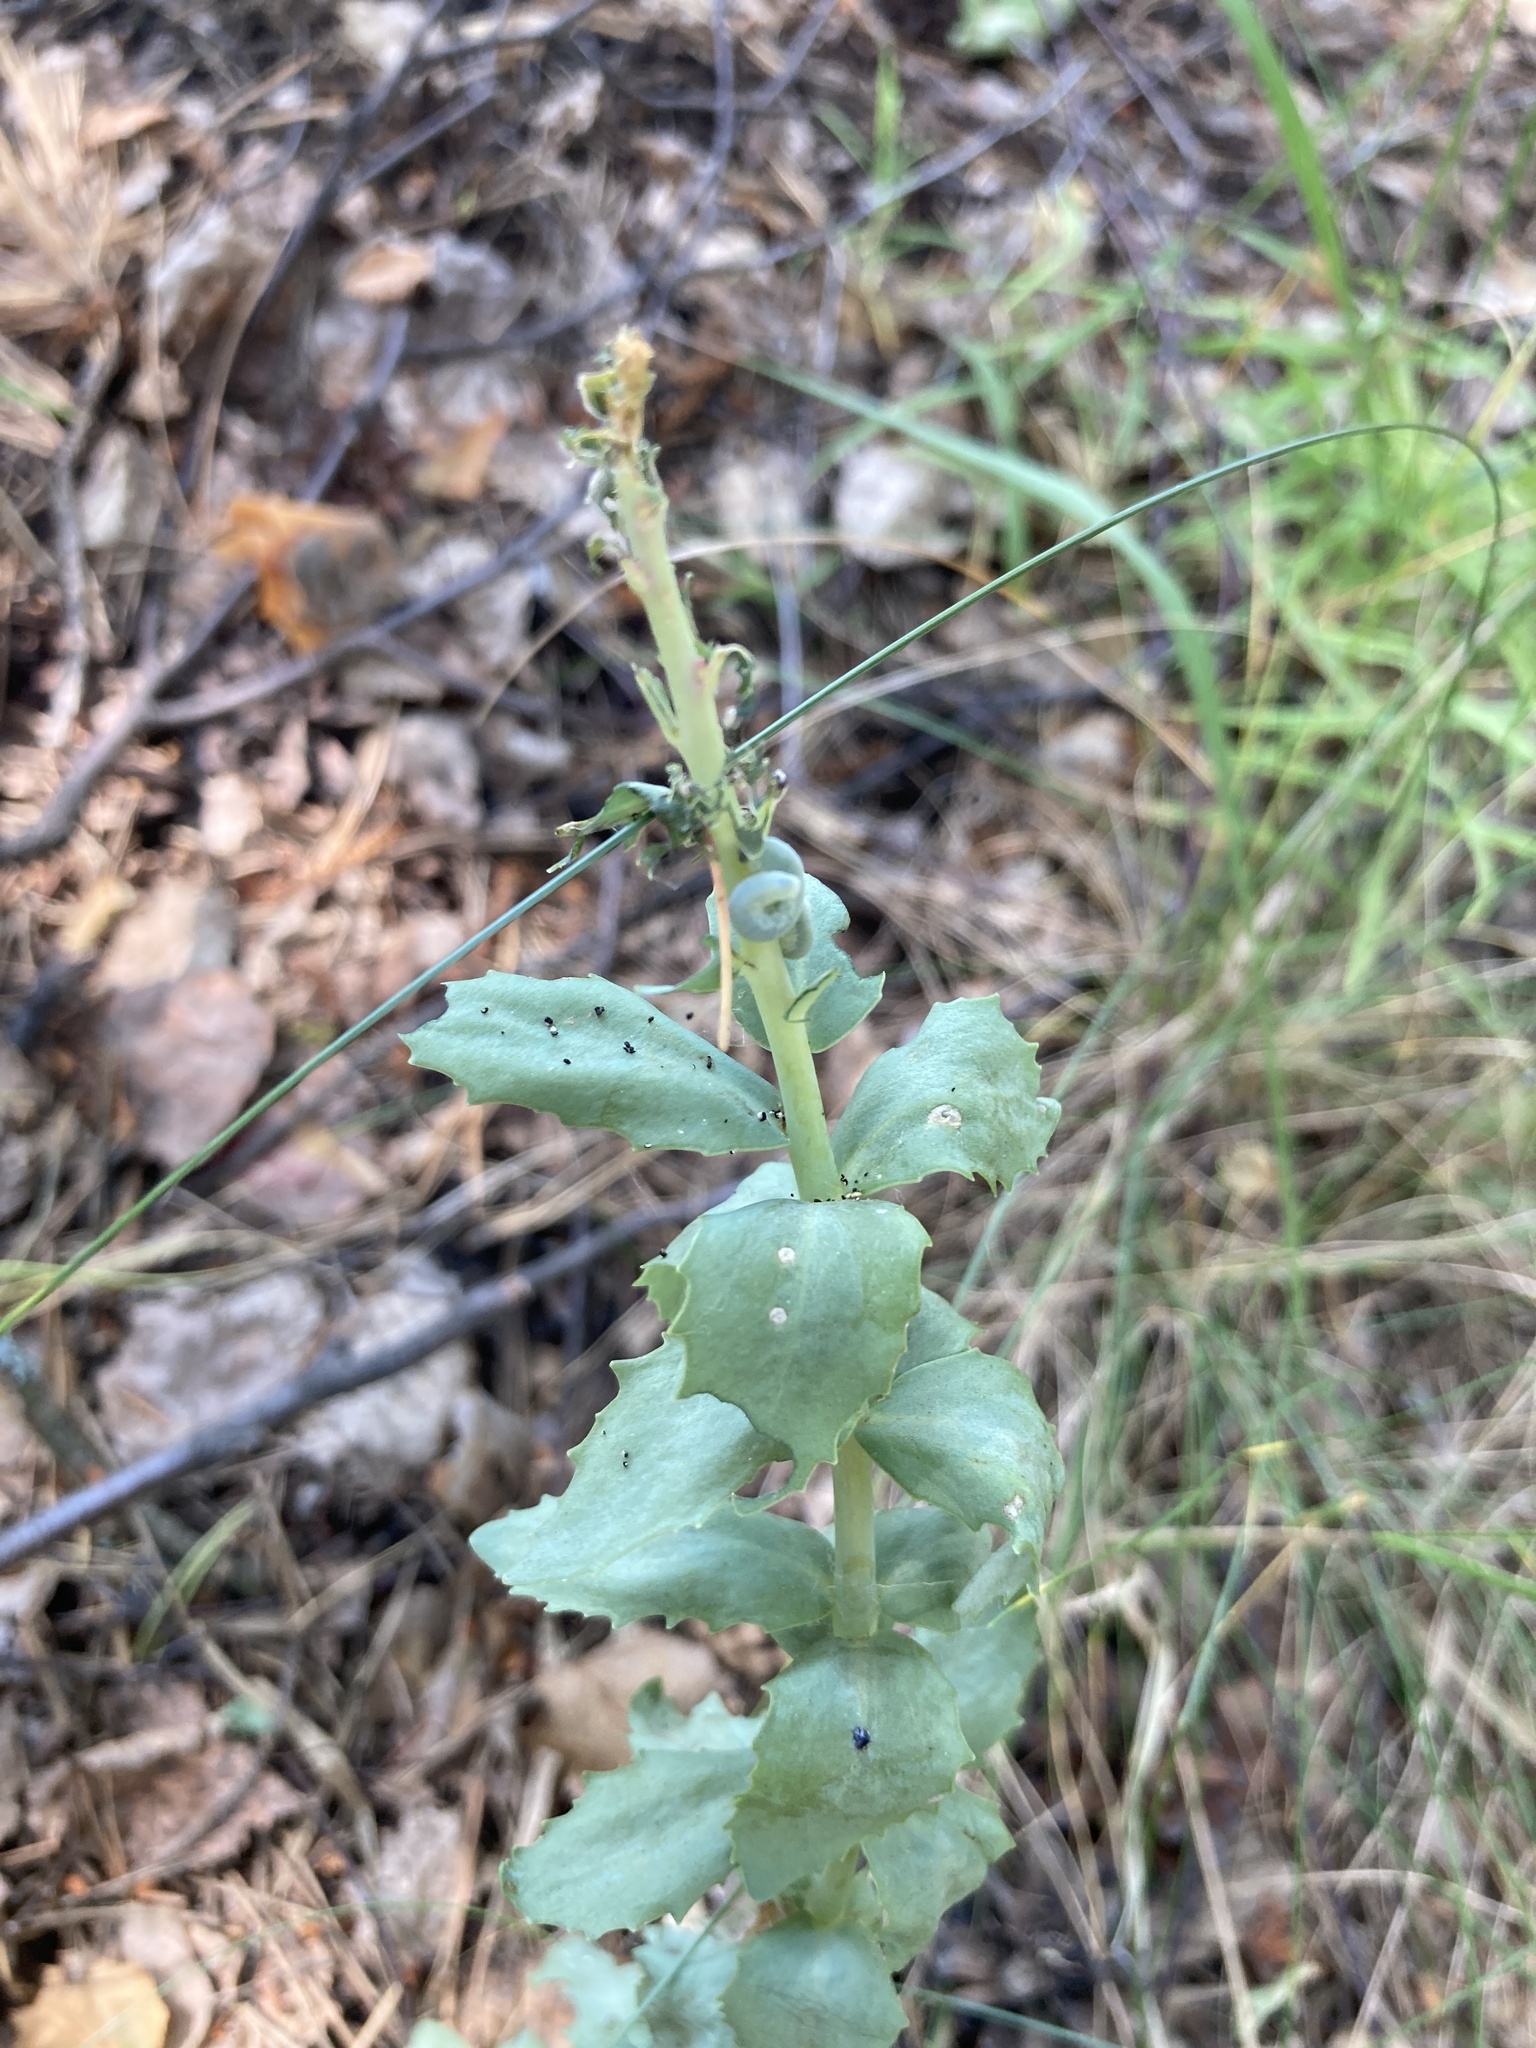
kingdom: Plantae
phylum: Tracheophyta
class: Magnoliopsida
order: Saxifragales
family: Crassulaceae
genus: Hylotelephium
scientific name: Hylotelephium telephium
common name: Live-forever
